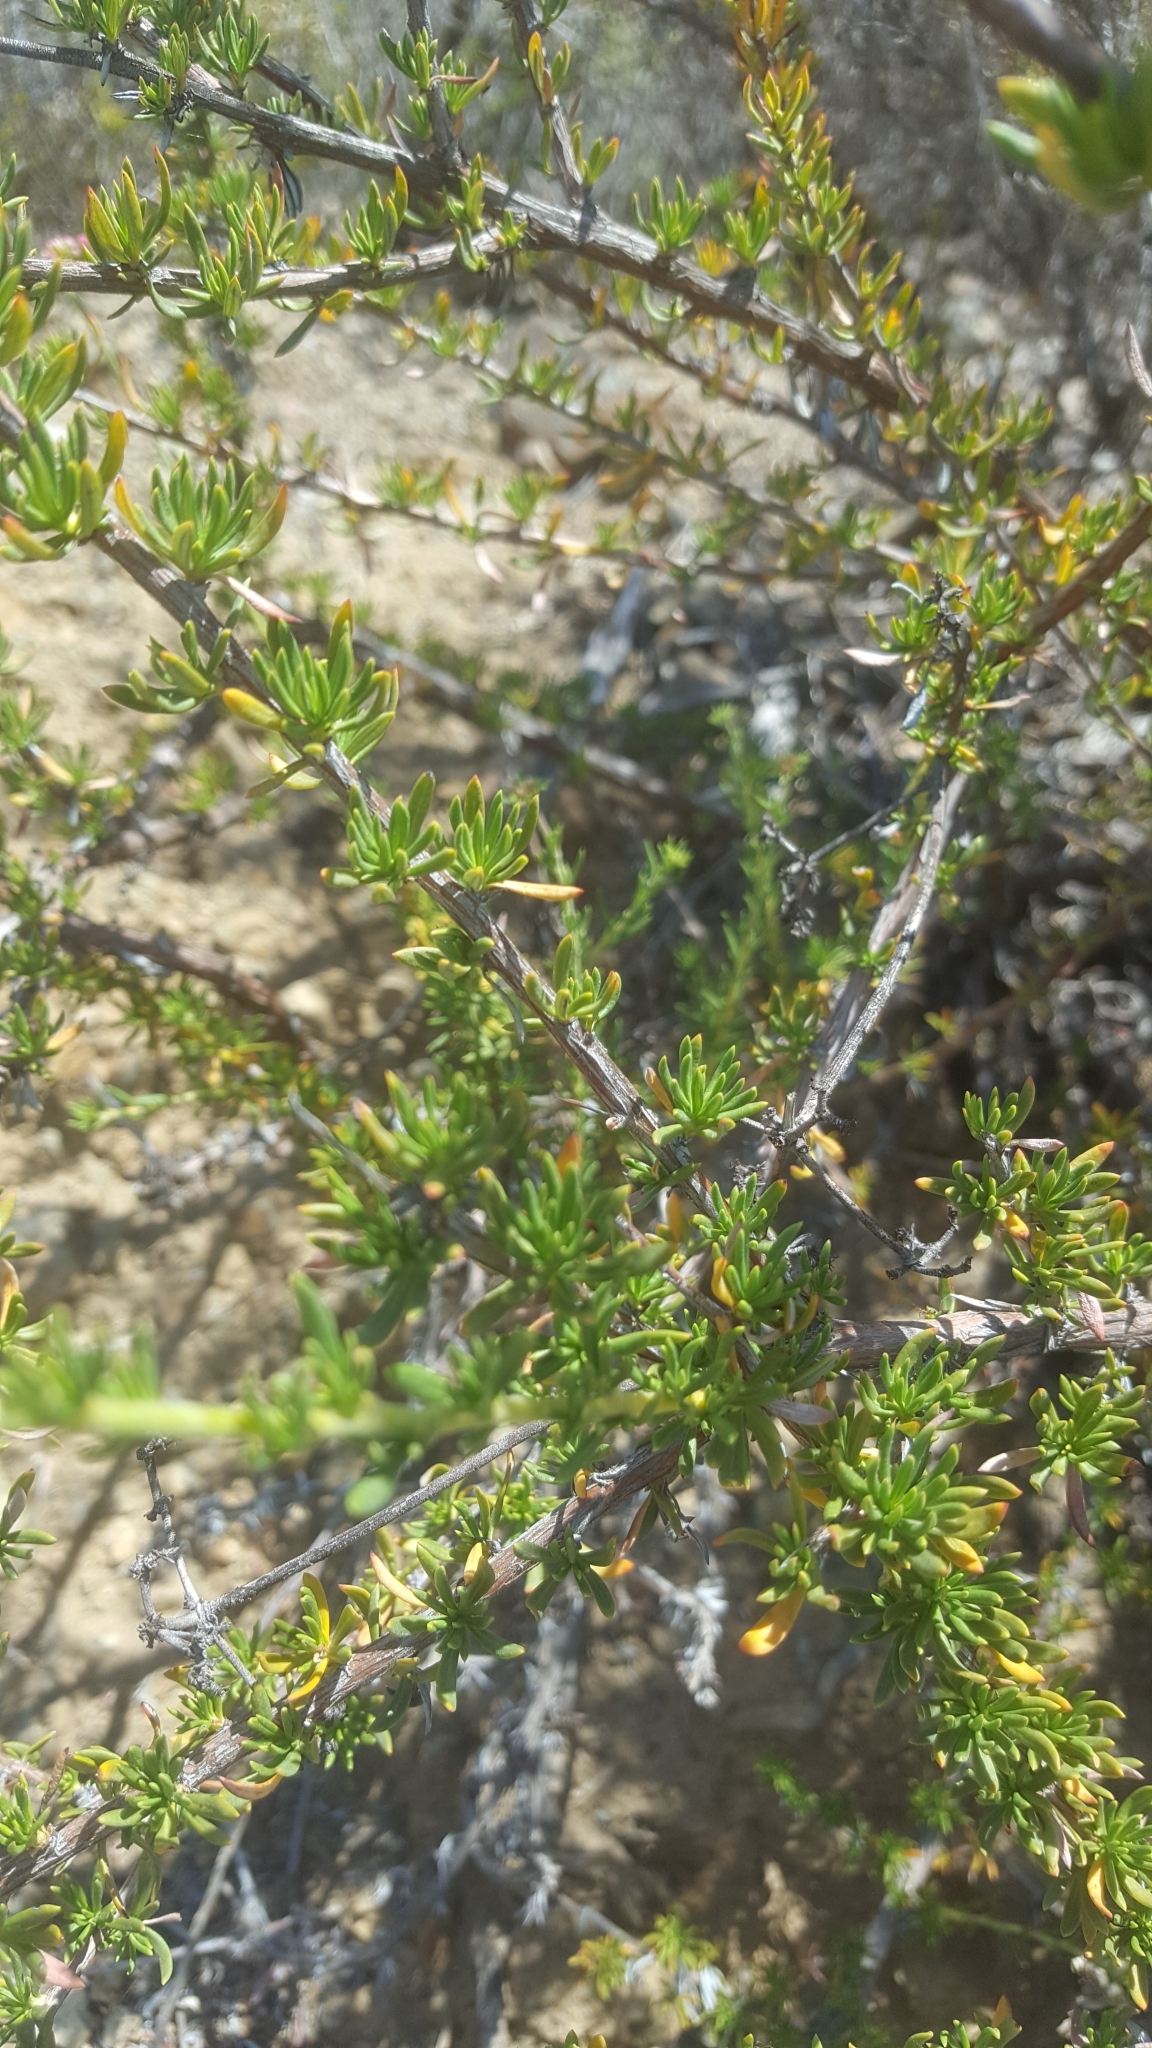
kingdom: Plantae
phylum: Tracheophyta
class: Magnoliopsida
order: Caryophyllales
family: Polygonaceae
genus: Eriogonum
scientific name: Eriogonum fasciculatum
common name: California wild buckwheat
